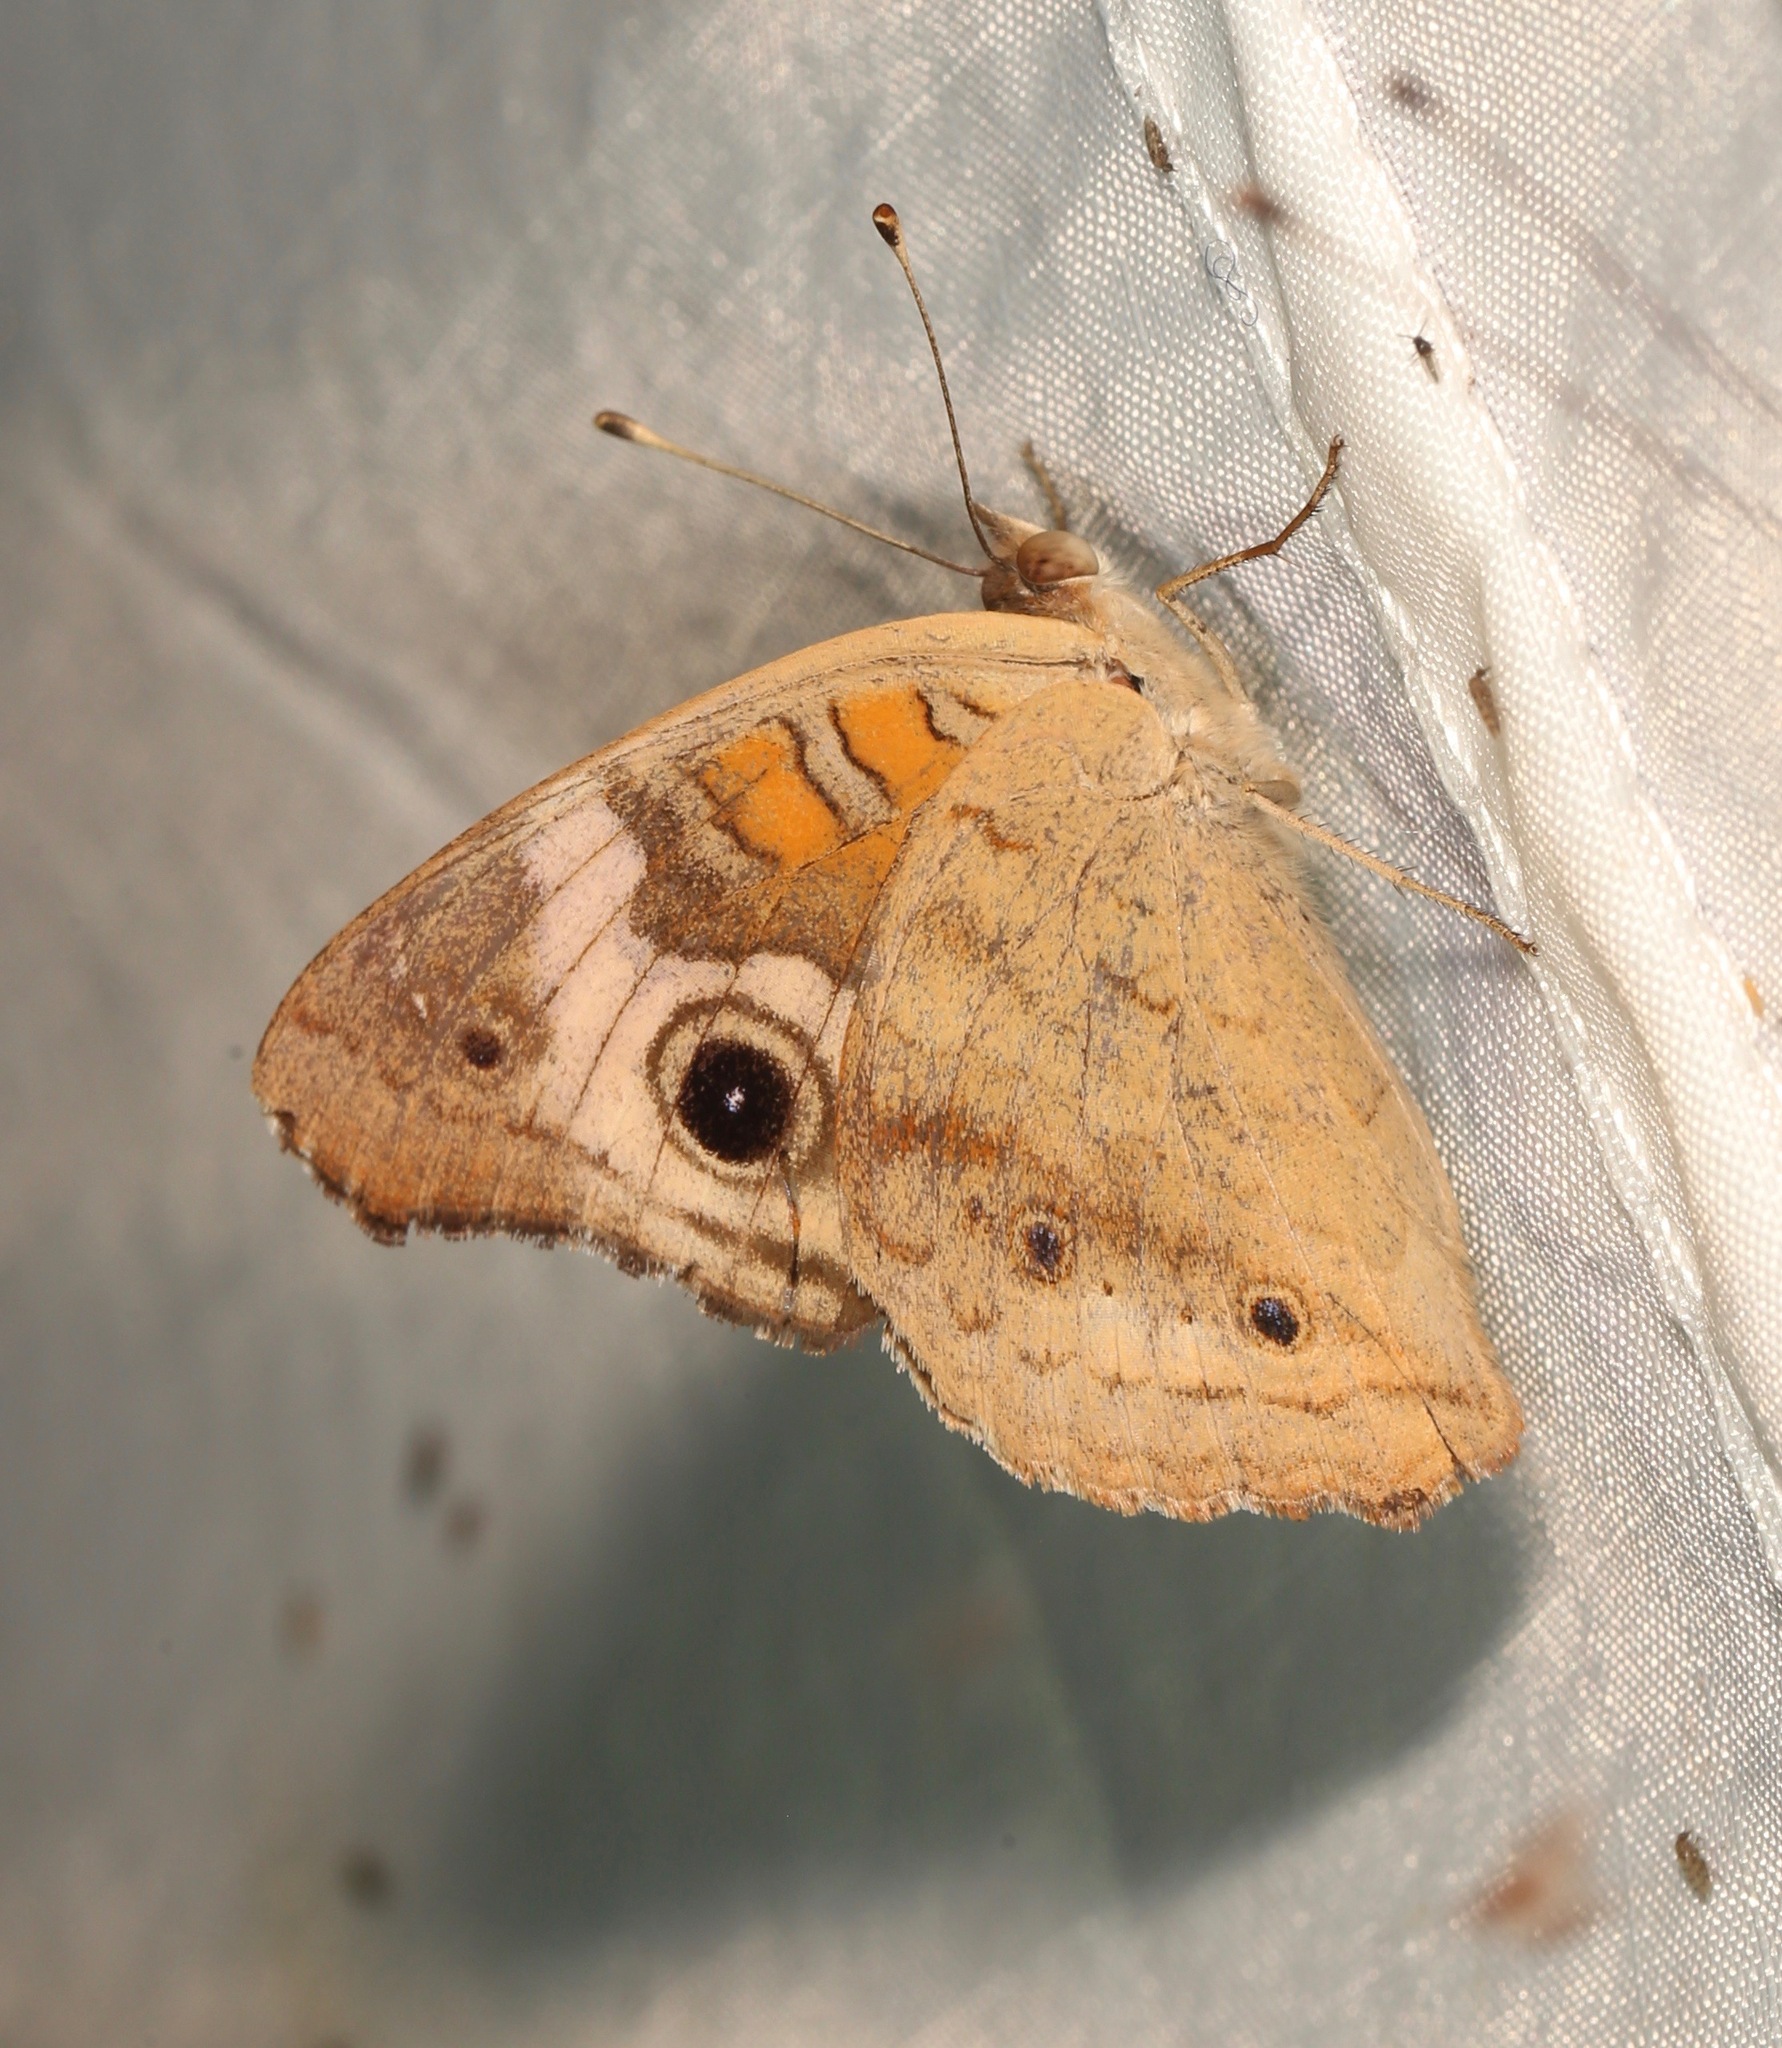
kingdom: Animalia
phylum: Arthropoda
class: Insecta
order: Lepidoptera
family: Nymphalidae
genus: Junonia
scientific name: Junonia coenia
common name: Common buckeye
